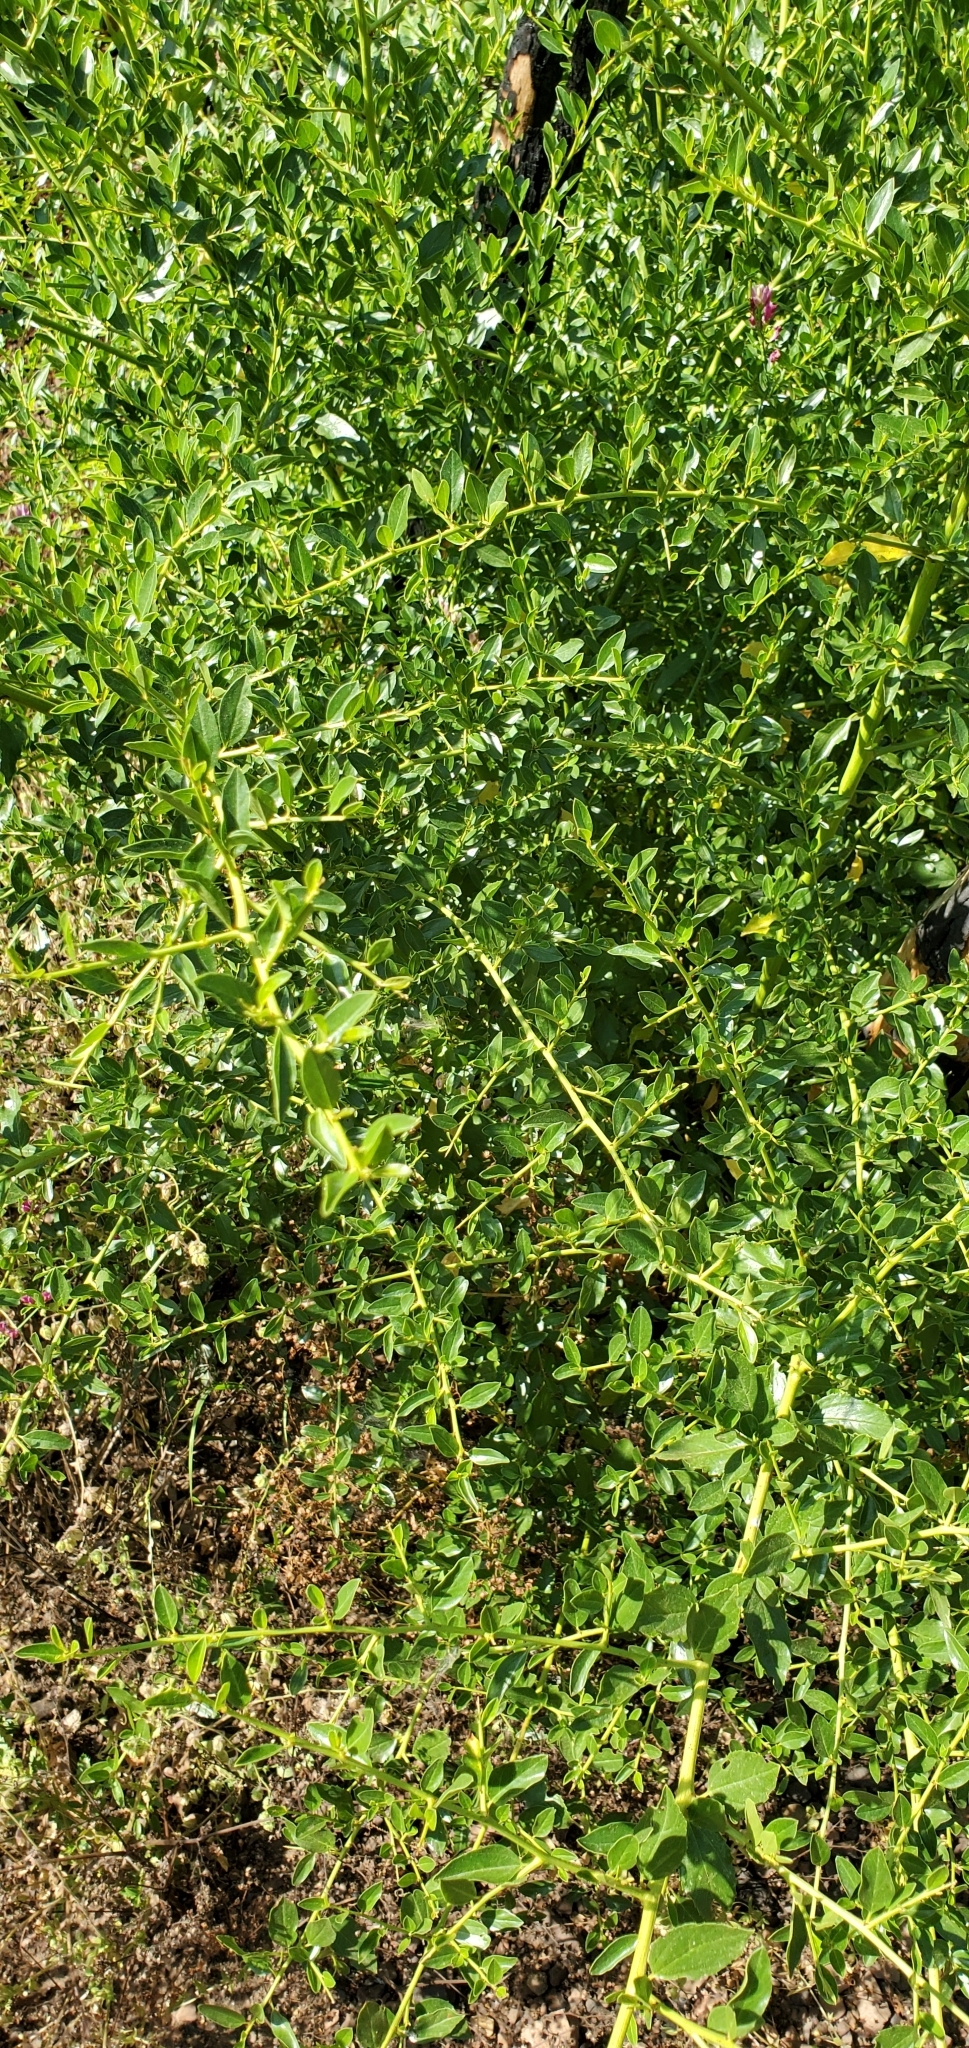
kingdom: Plantae
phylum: Tracheophyta
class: Magnoliopsida
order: Rosales
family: Rhamnaceae
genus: Ceanothus
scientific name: Ceanothus spinosus
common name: Greenbark whitethorn
